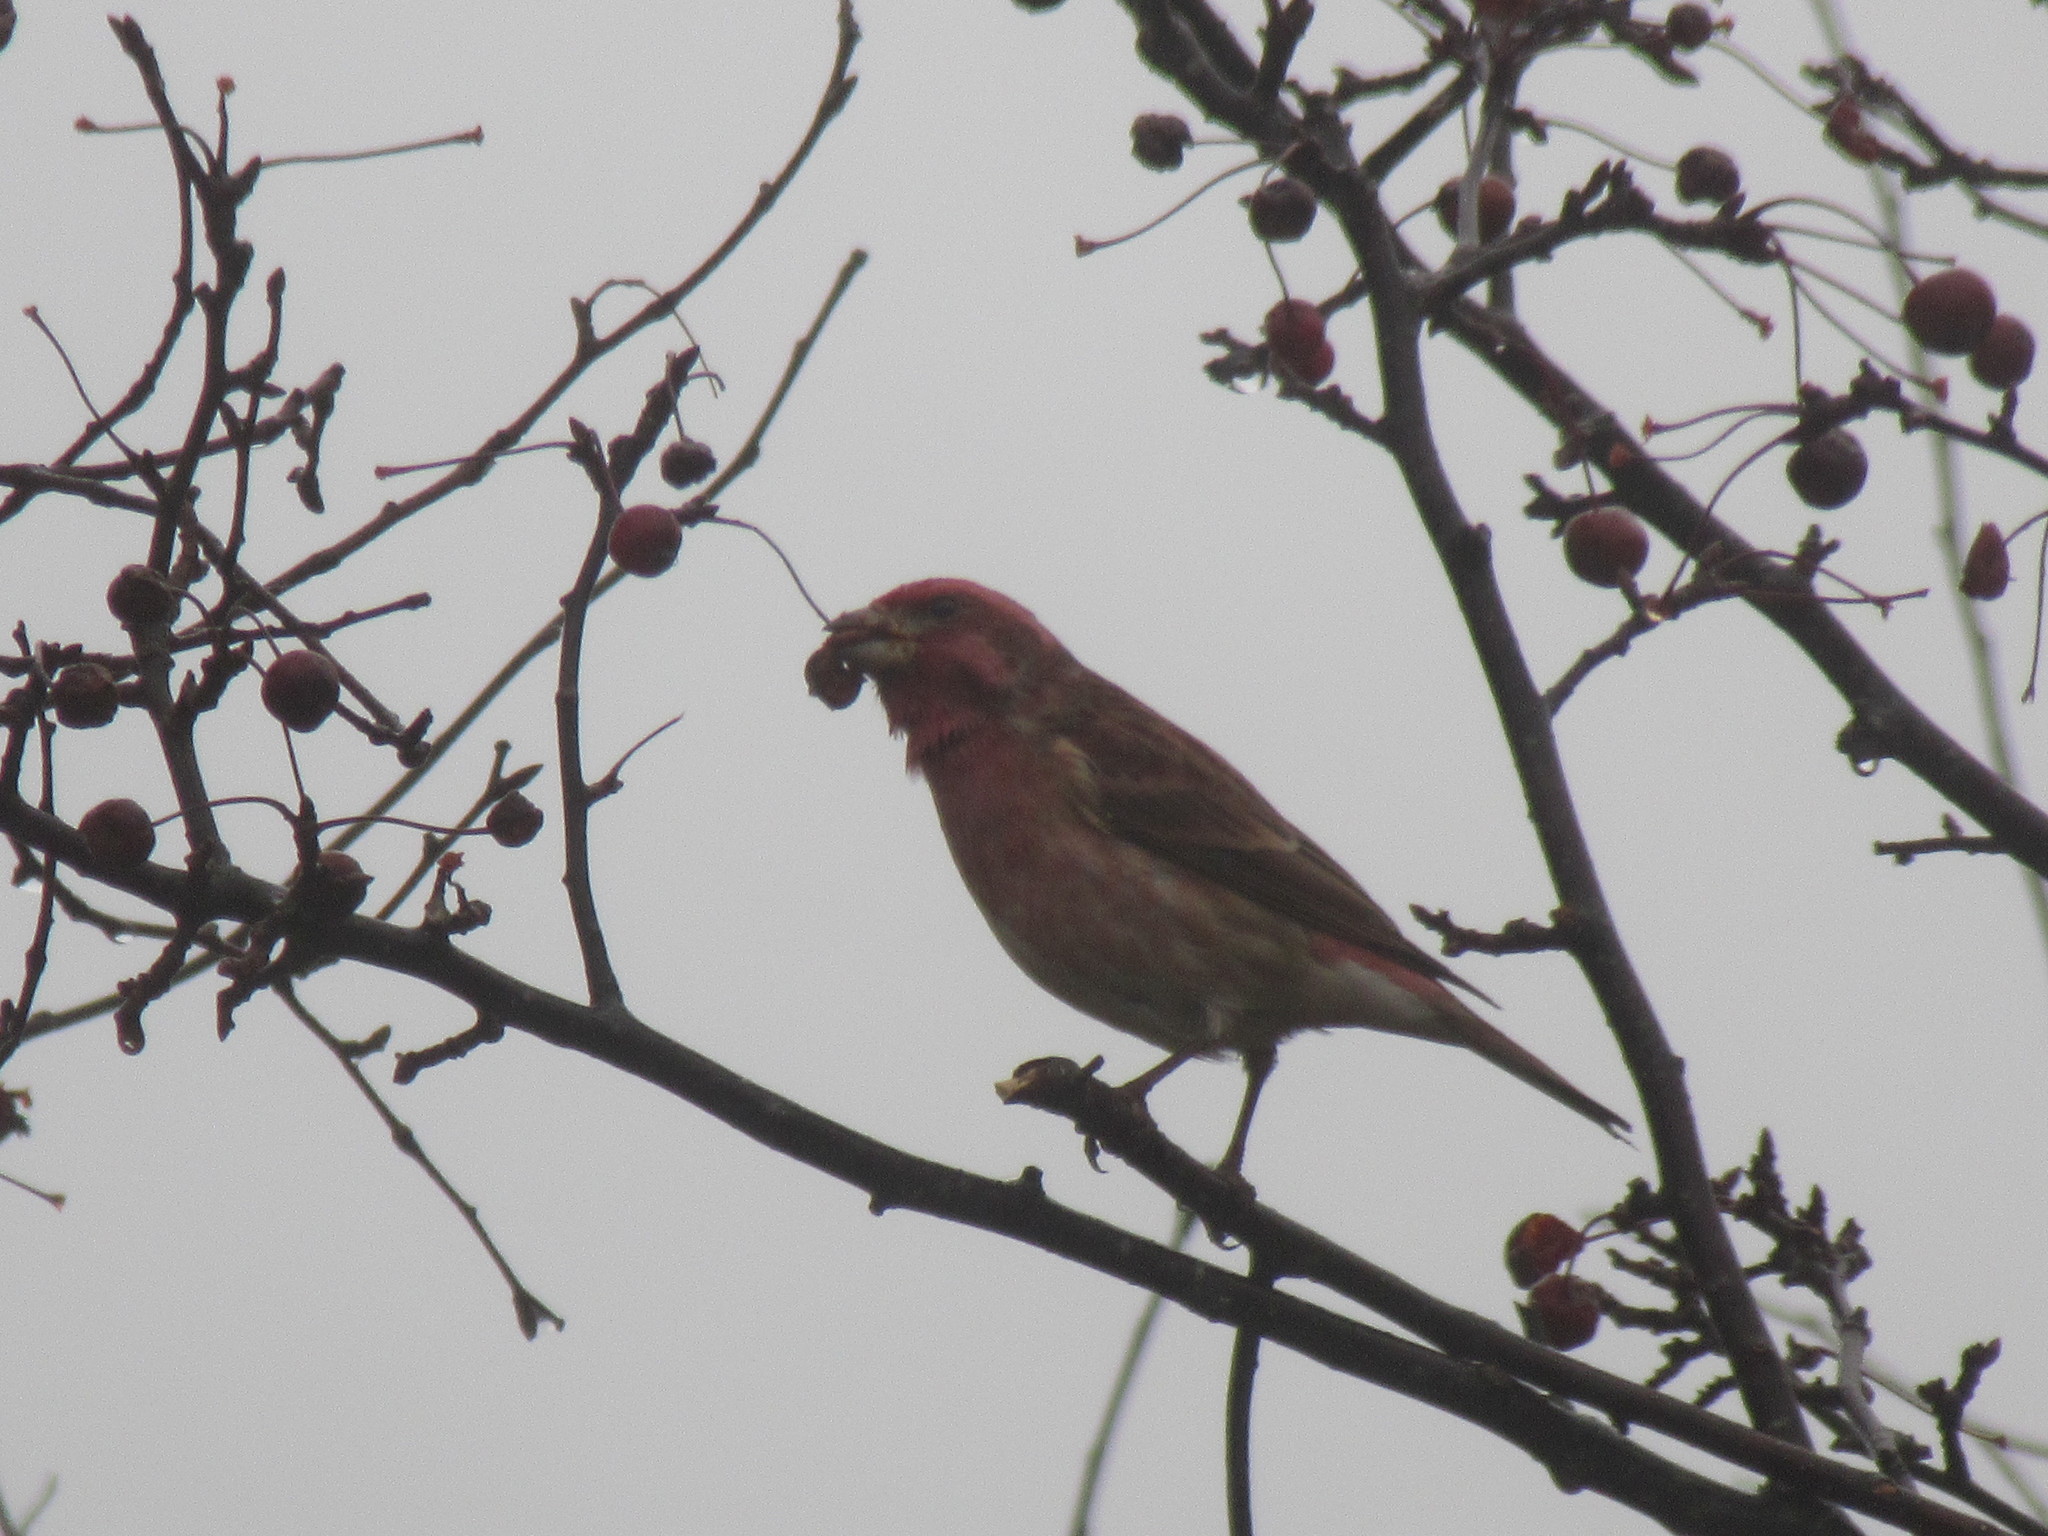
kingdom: Animalia
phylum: Chordata
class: Aves
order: Passeriformes
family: Fringillidae
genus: Haemorhous
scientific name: Haemorhous purpureus
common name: Purple finch
